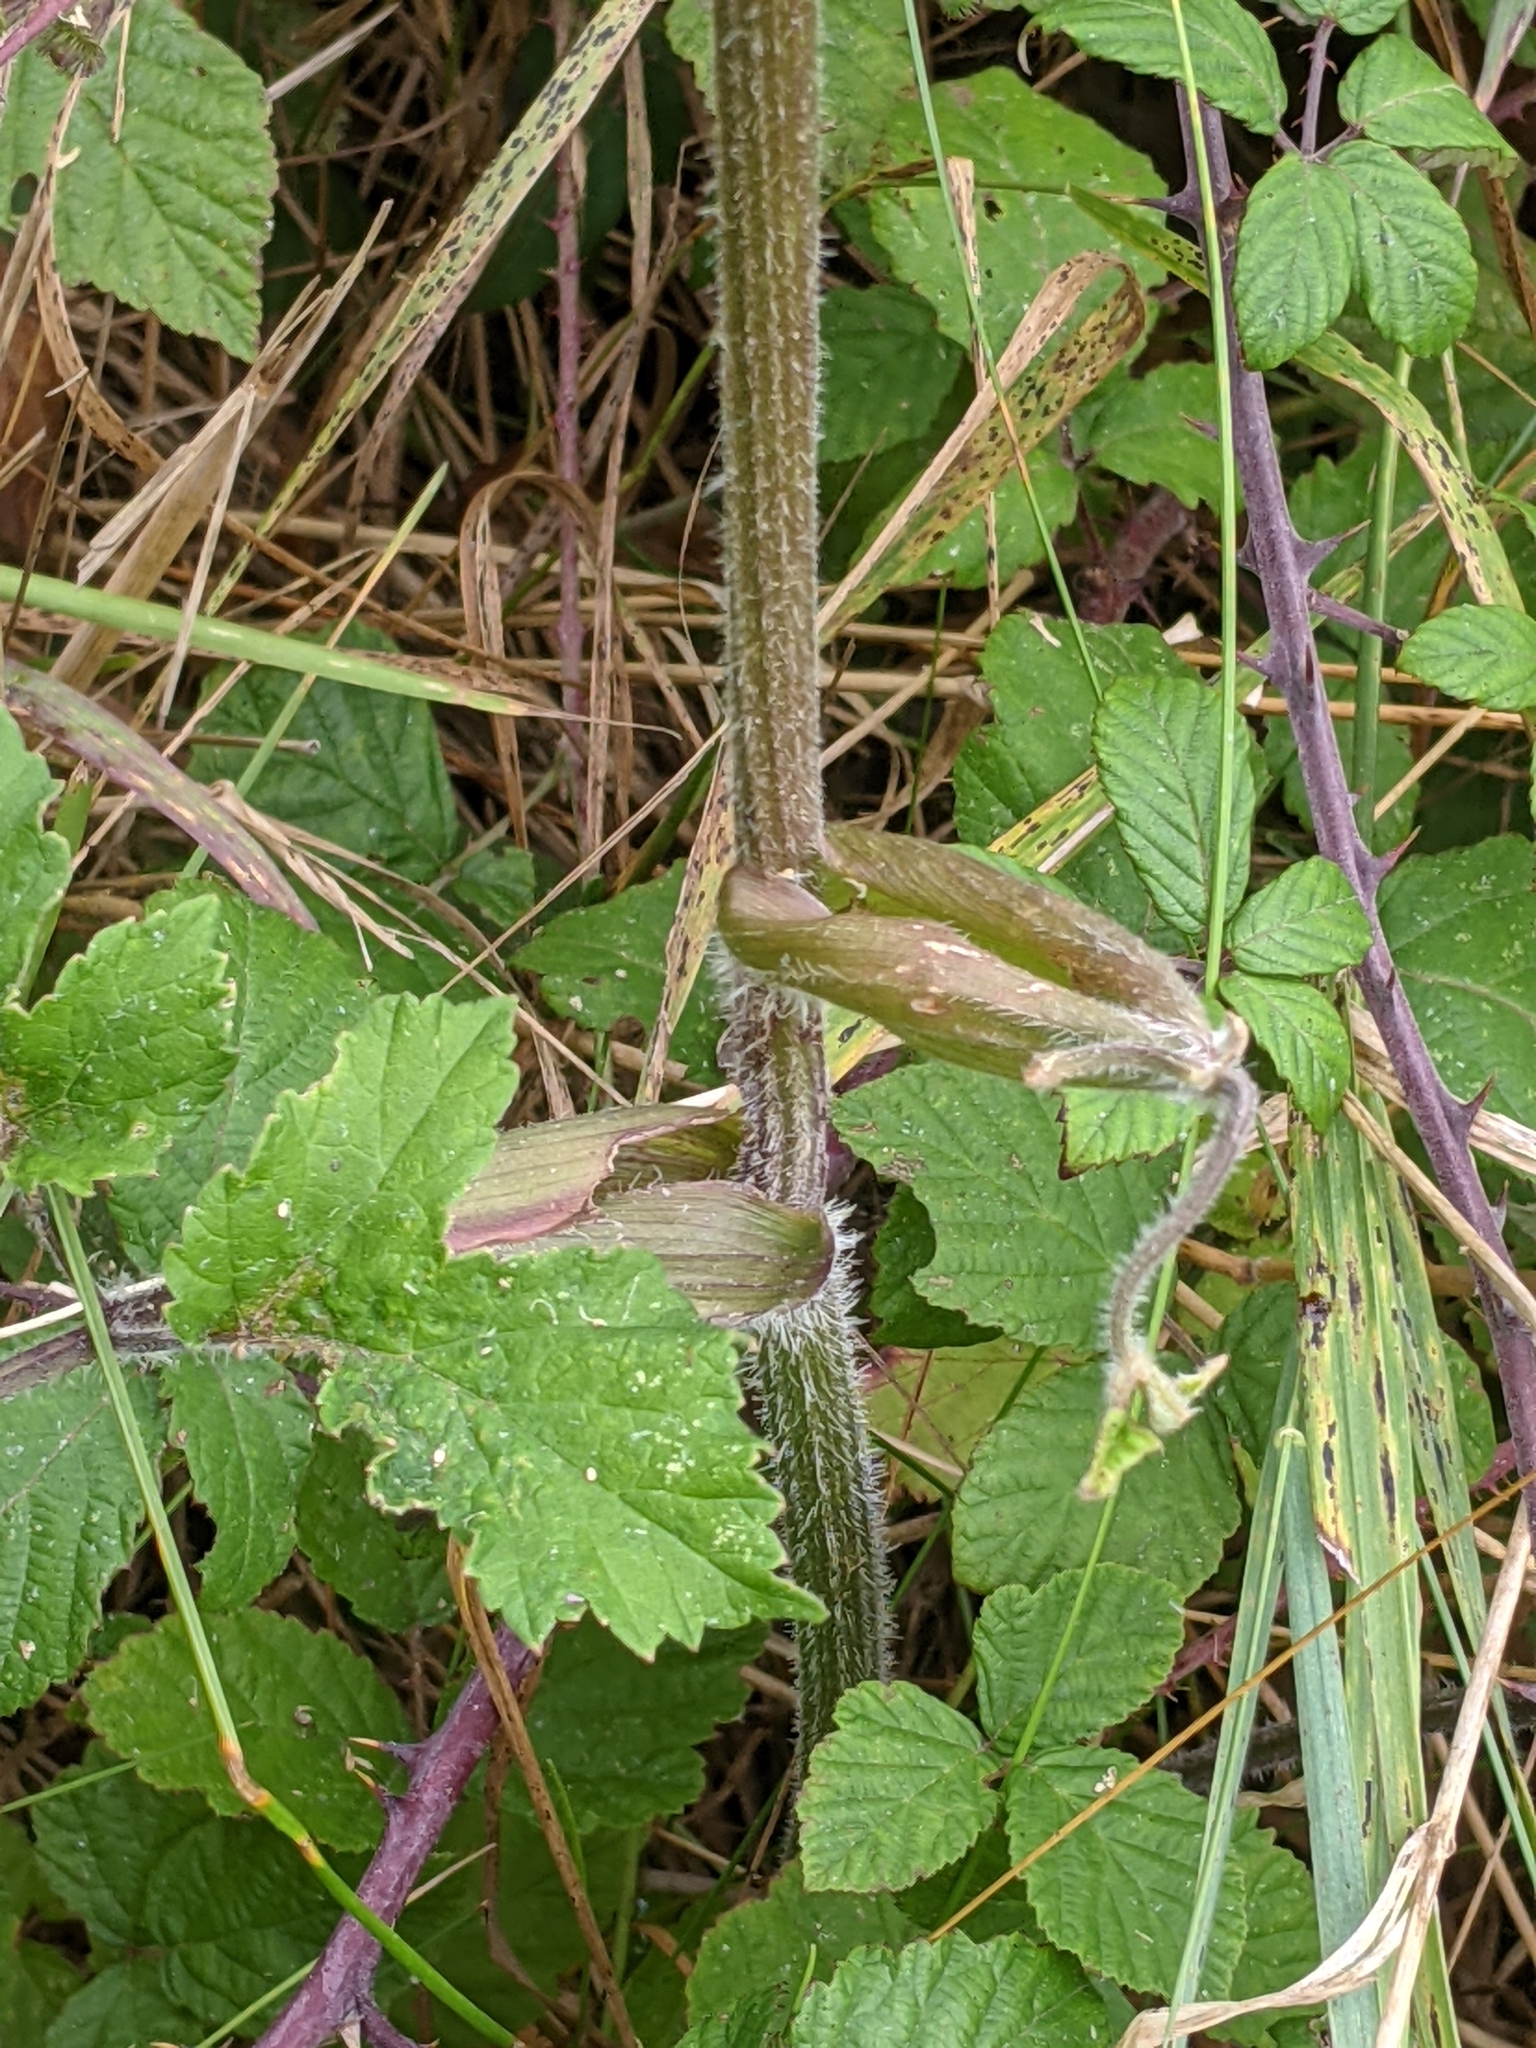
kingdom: Plantae
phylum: Tracheophyta
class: Magnoliopsida
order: Apiales
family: Apiaceae
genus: Heracleum
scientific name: Heracleum sphondylium
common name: Hogweed
